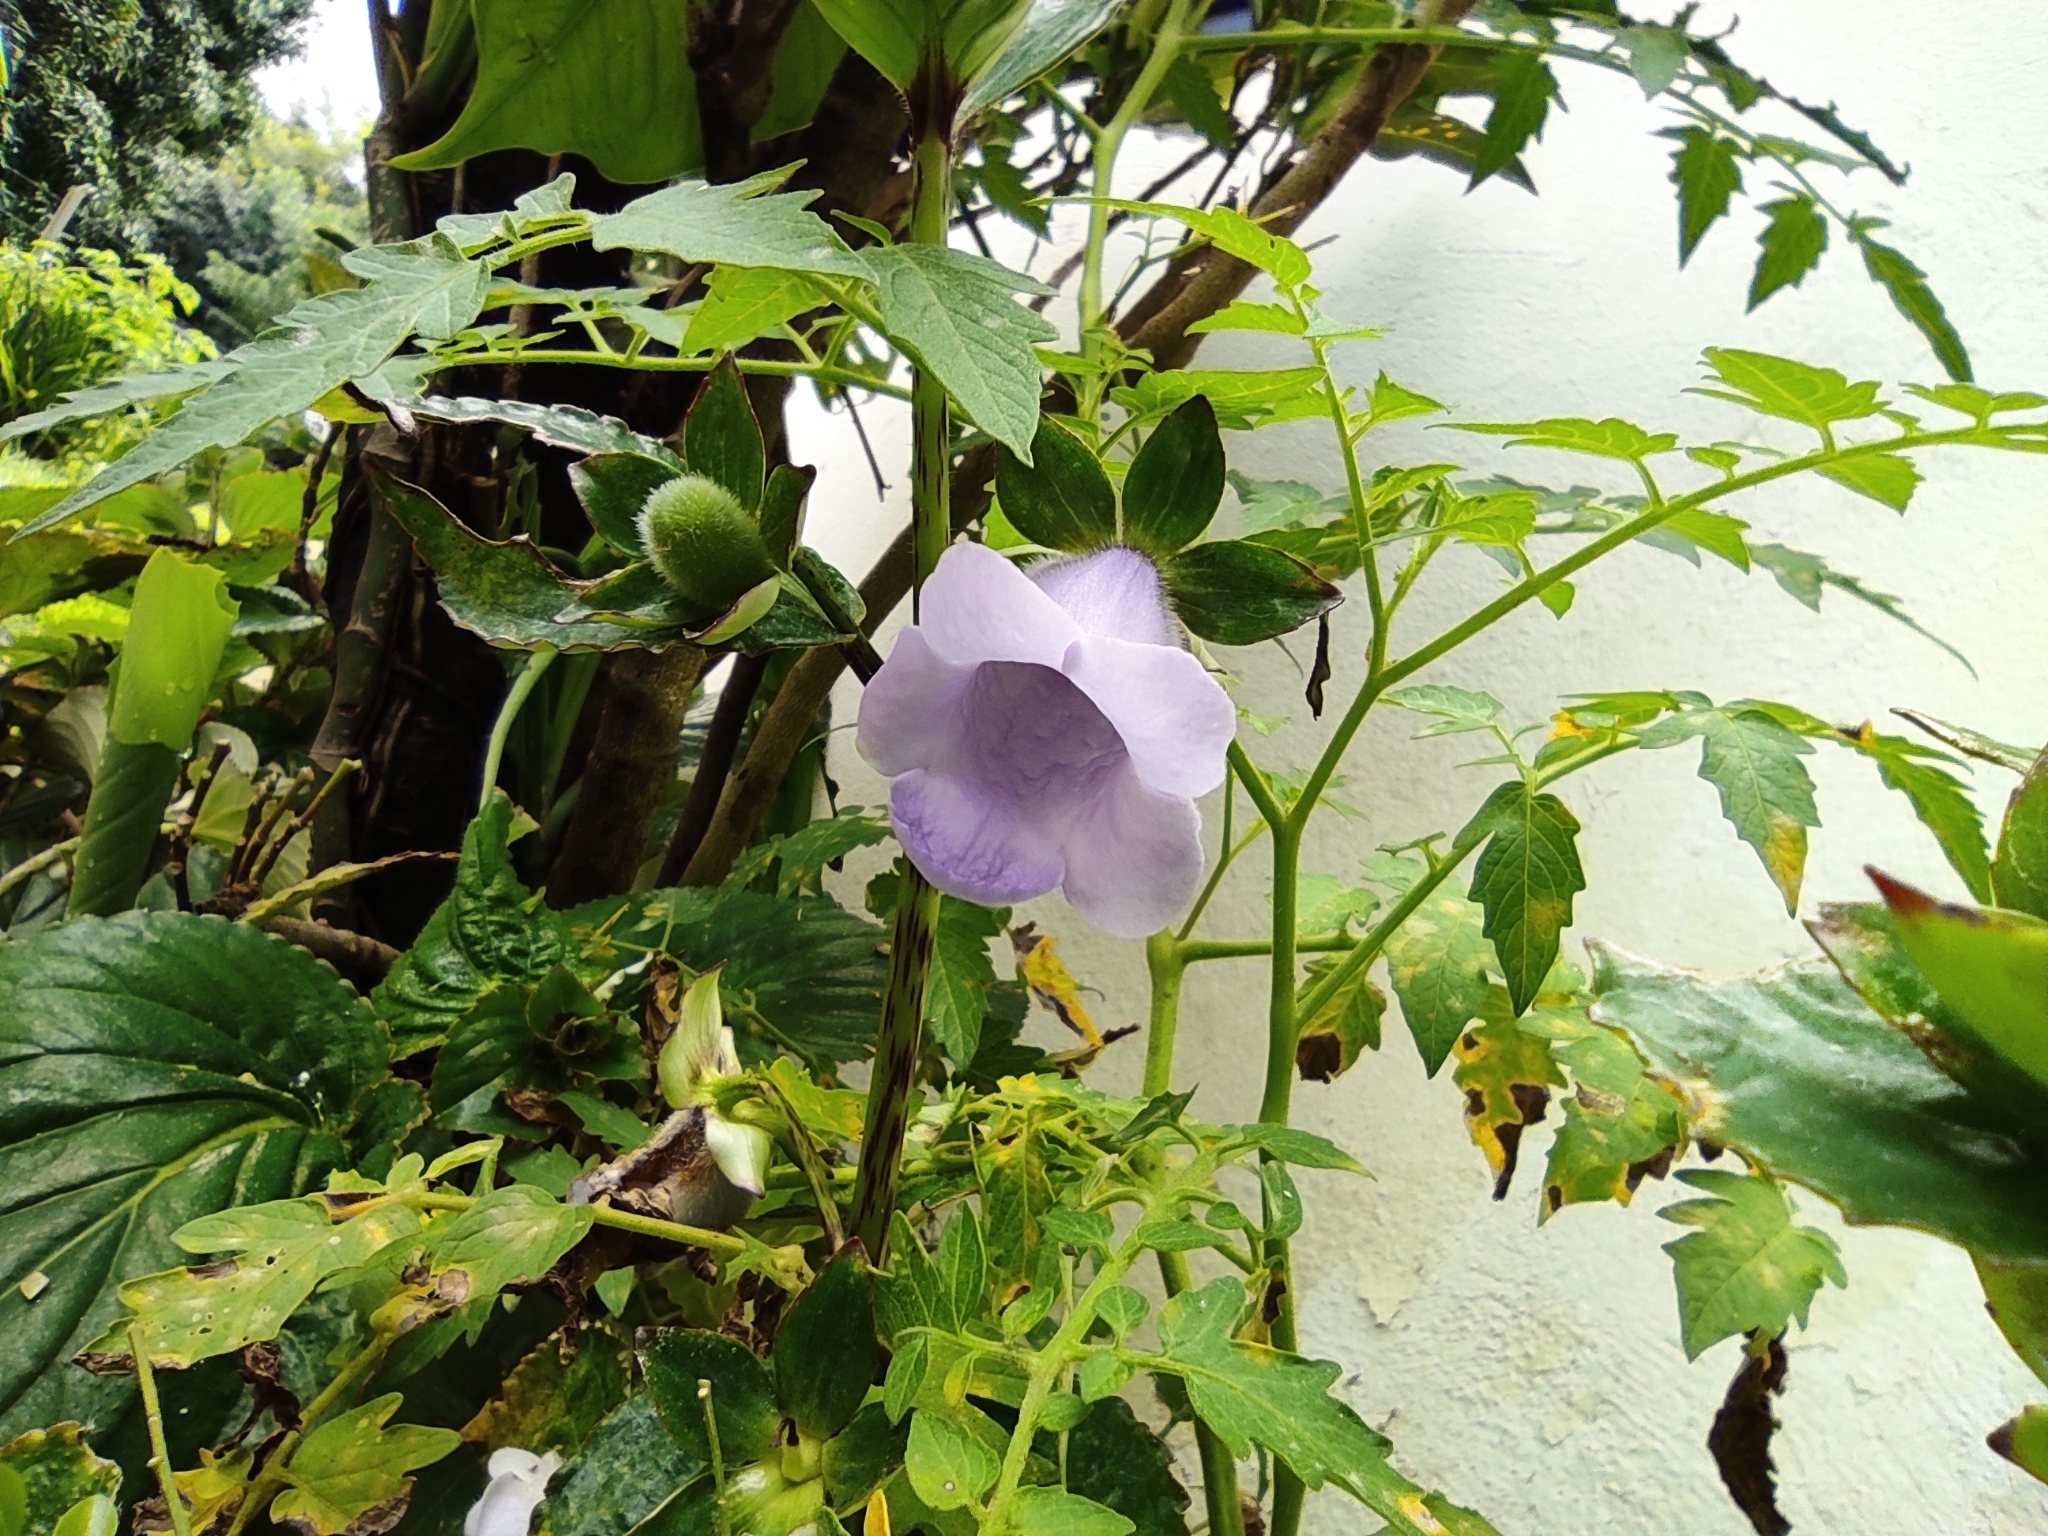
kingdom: Plantae
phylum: Tracheophyta
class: Magnoliopsida
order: Lamiales
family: Gesneriaceae
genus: Gloxinia
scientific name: Gloxinia perennis
